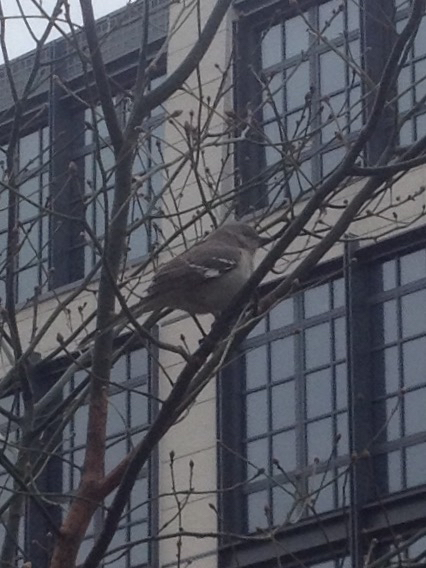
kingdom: Animalia
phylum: Chordata
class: Aves
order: Passeriformes
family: Mimidae
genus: Mimus
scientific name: Mimus polyglottos
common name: Northern mockingbird
